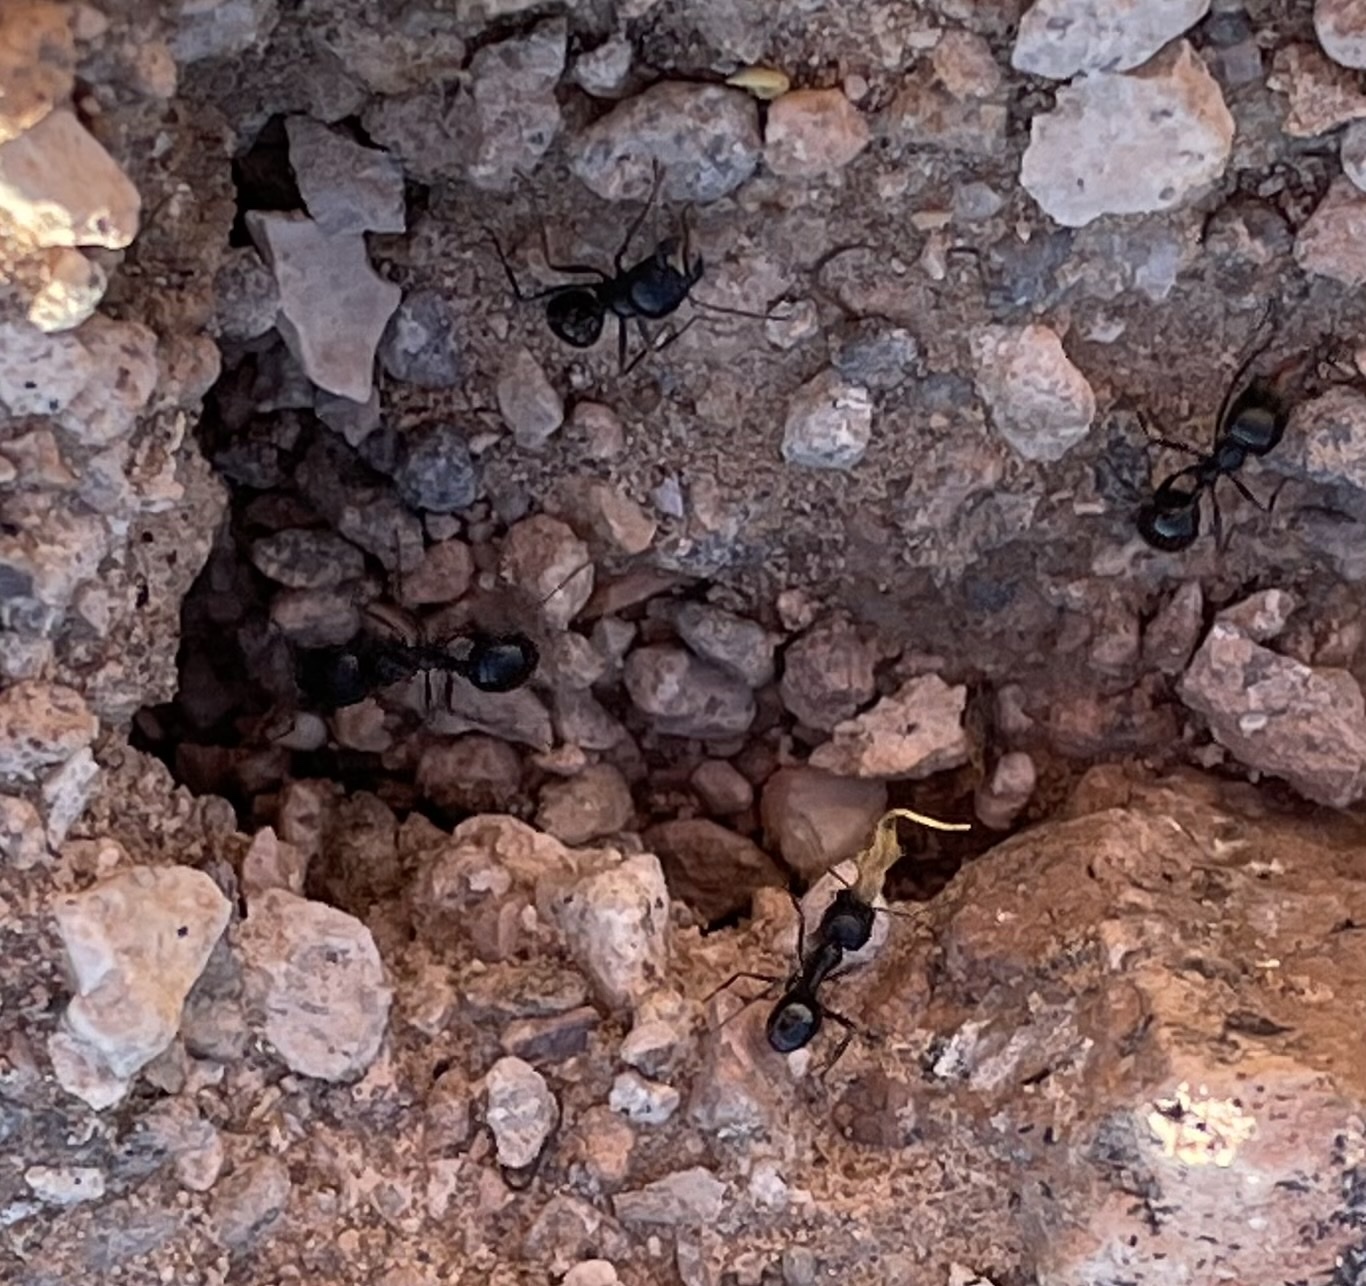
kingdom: Animalia
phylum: Arthropoda
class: Insecta
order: Hymenoptera
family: Formicidae
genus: Messor
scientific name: Messor pergandei
